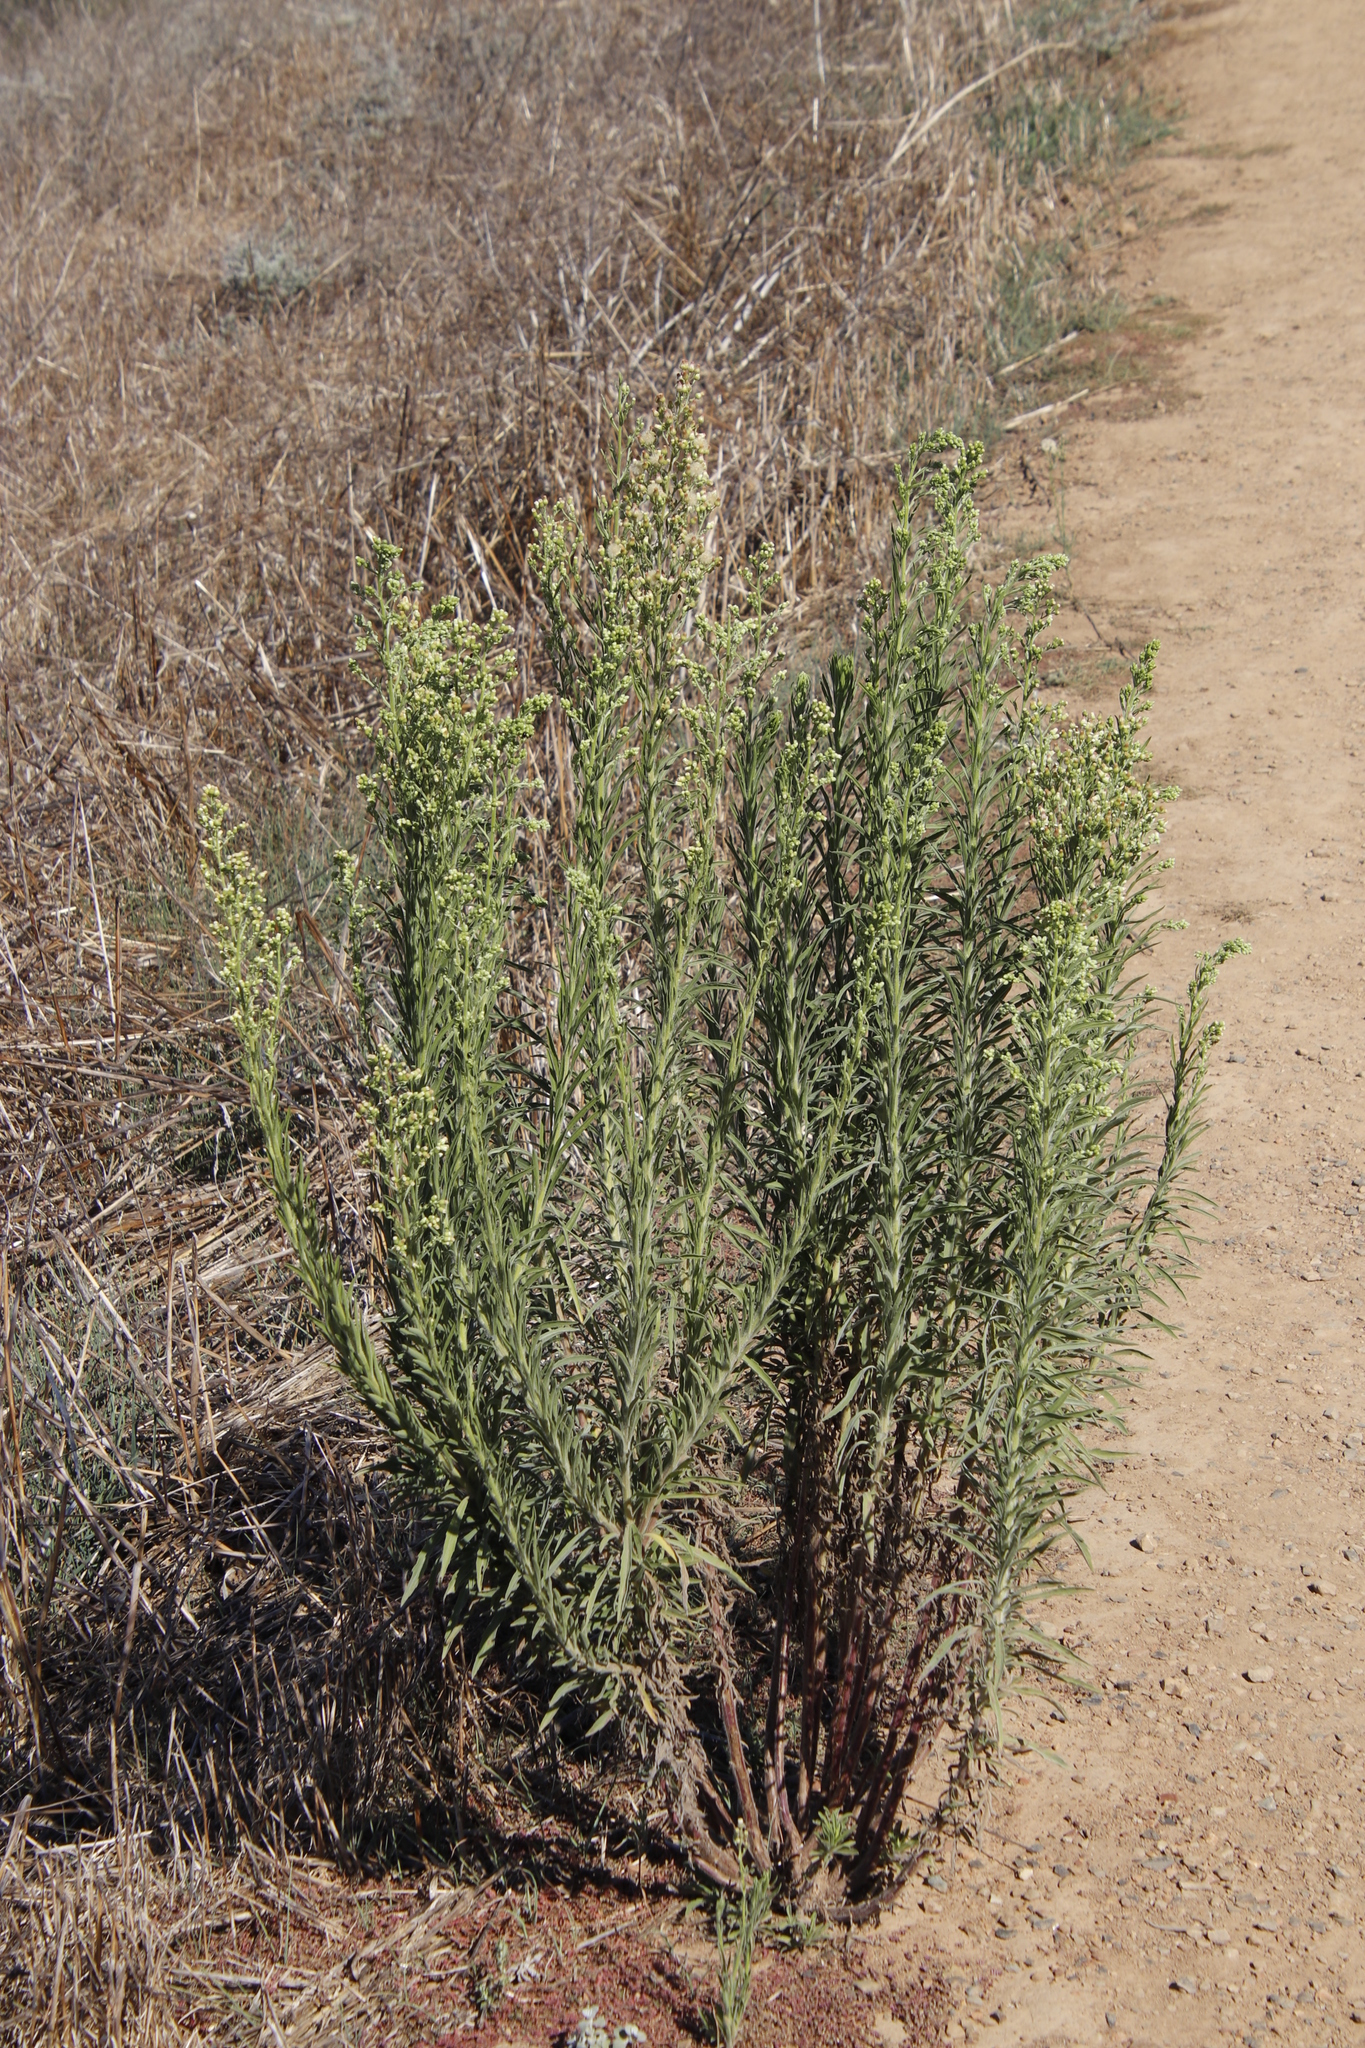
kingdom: Plantae
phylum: Tracheophyta
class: Magnoliopsida
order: Asterales
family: Asteraceae
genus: Erigeron
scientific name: Erigeron sumatrensis
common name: Daisy
